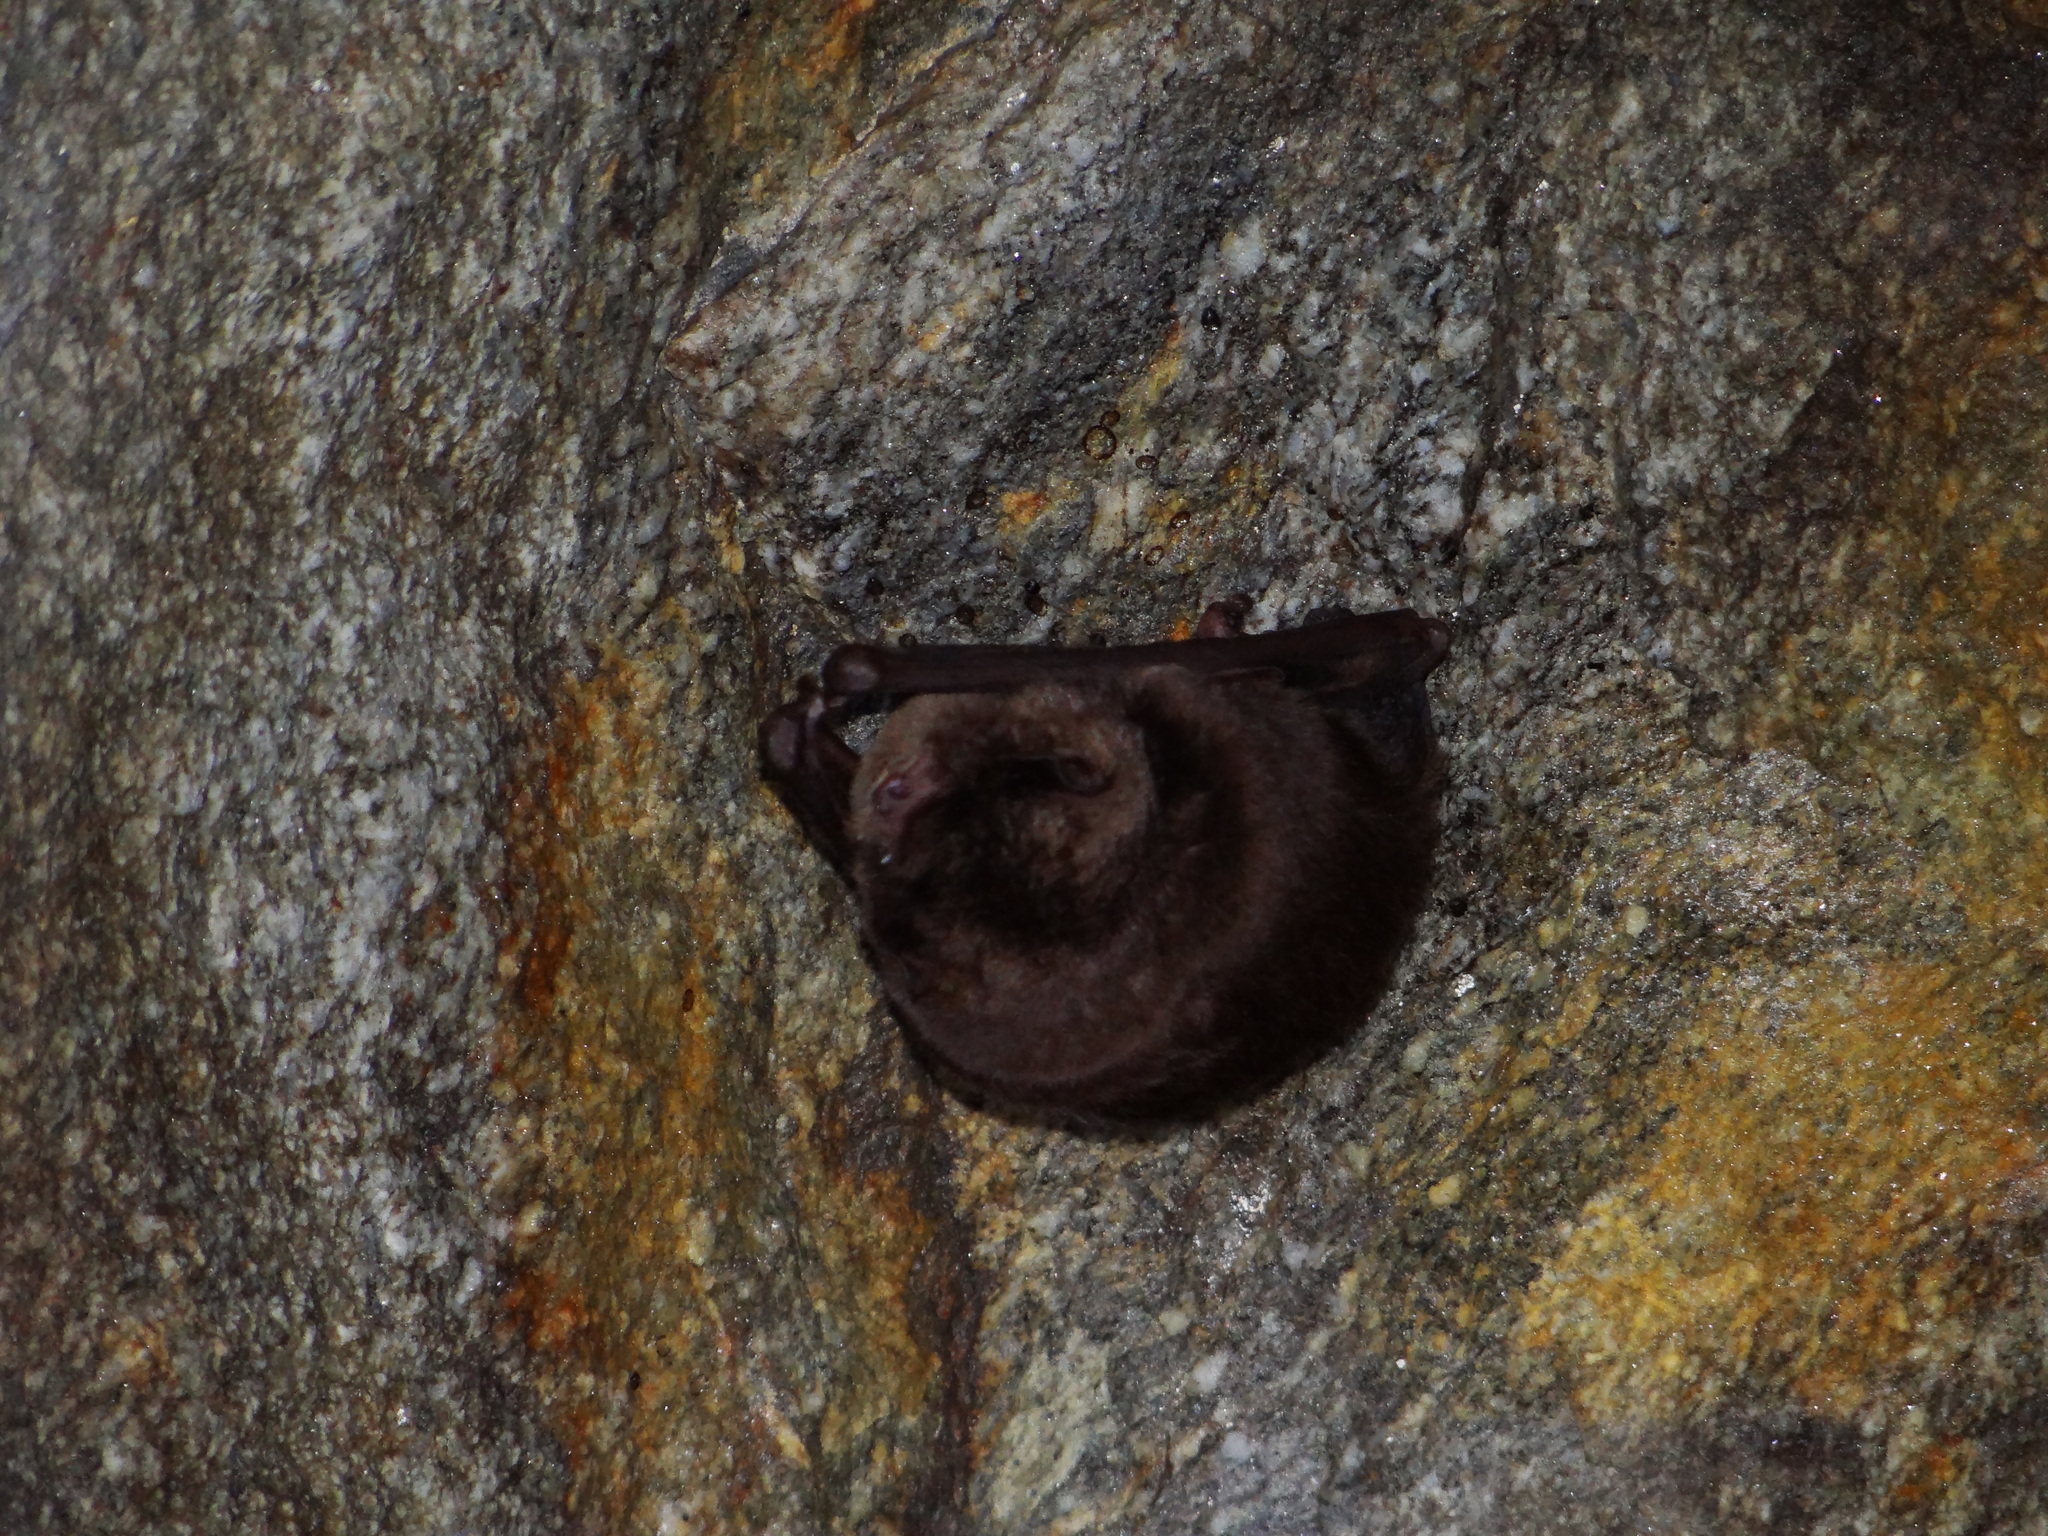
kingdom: Animalia
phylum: Chordata
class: Mammalia
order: Chiroptera
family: Miniopteridae
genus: Miniopterus
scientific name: Miniopterus fuliginosus
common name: Asian long-fingered bat
